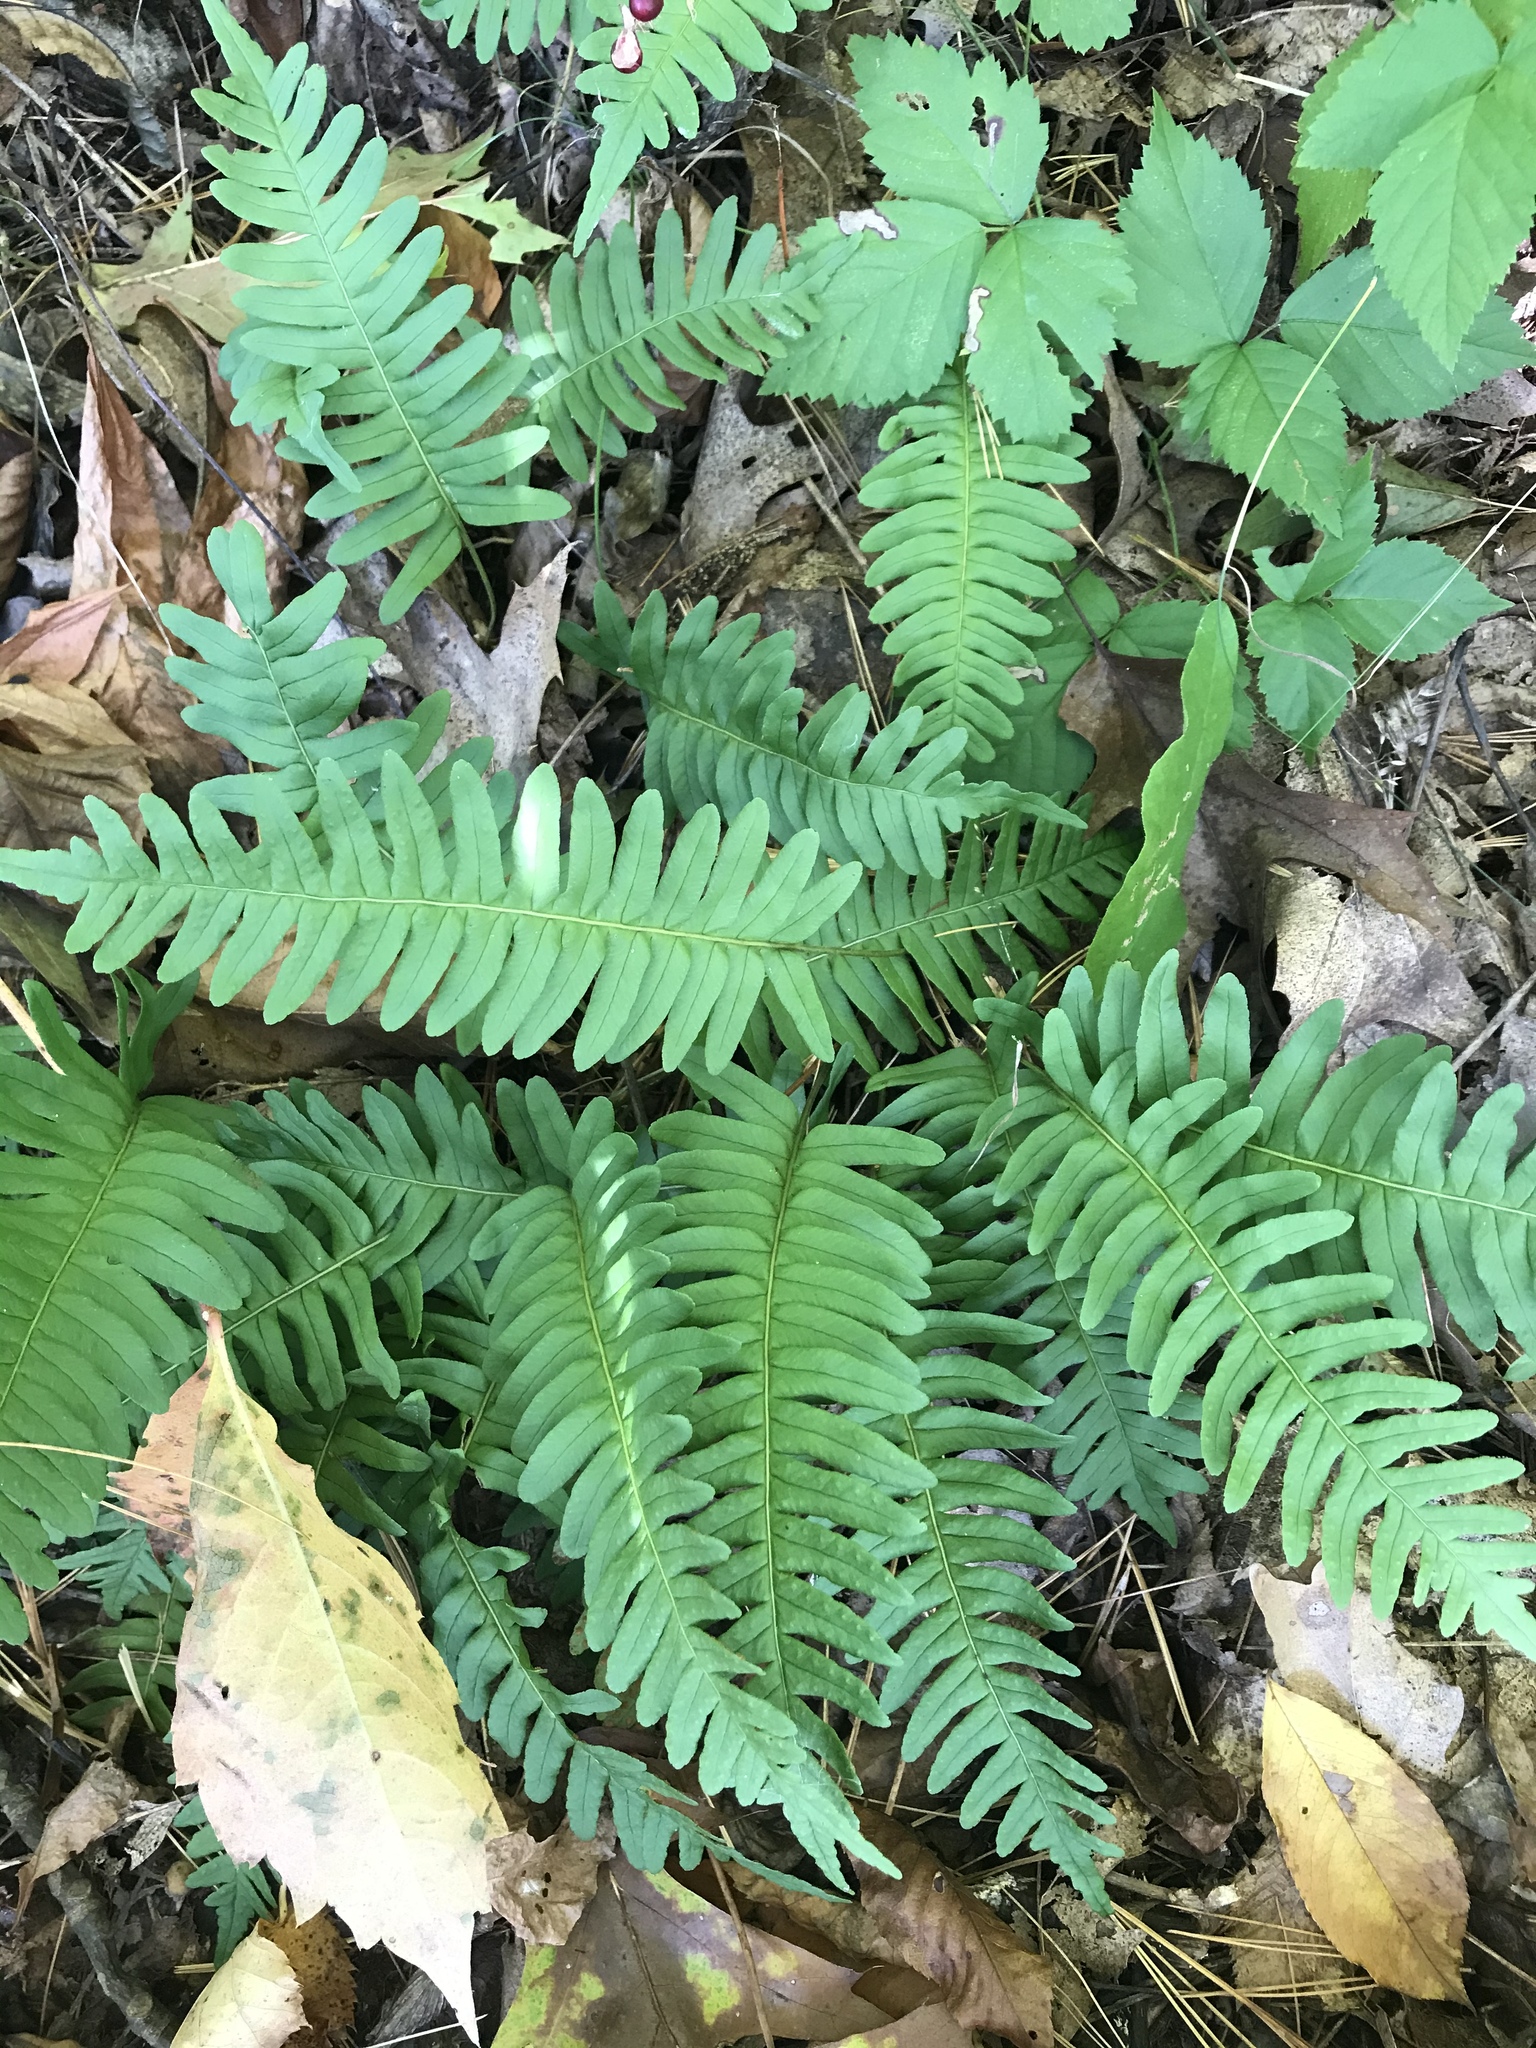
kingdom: Plantae
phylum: Tracheophyta
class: Polypodiopsida
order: Polypodiales
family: Polypodiaceae
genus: Polypodium
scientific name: Polypodium virginianum
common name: American wall fern
